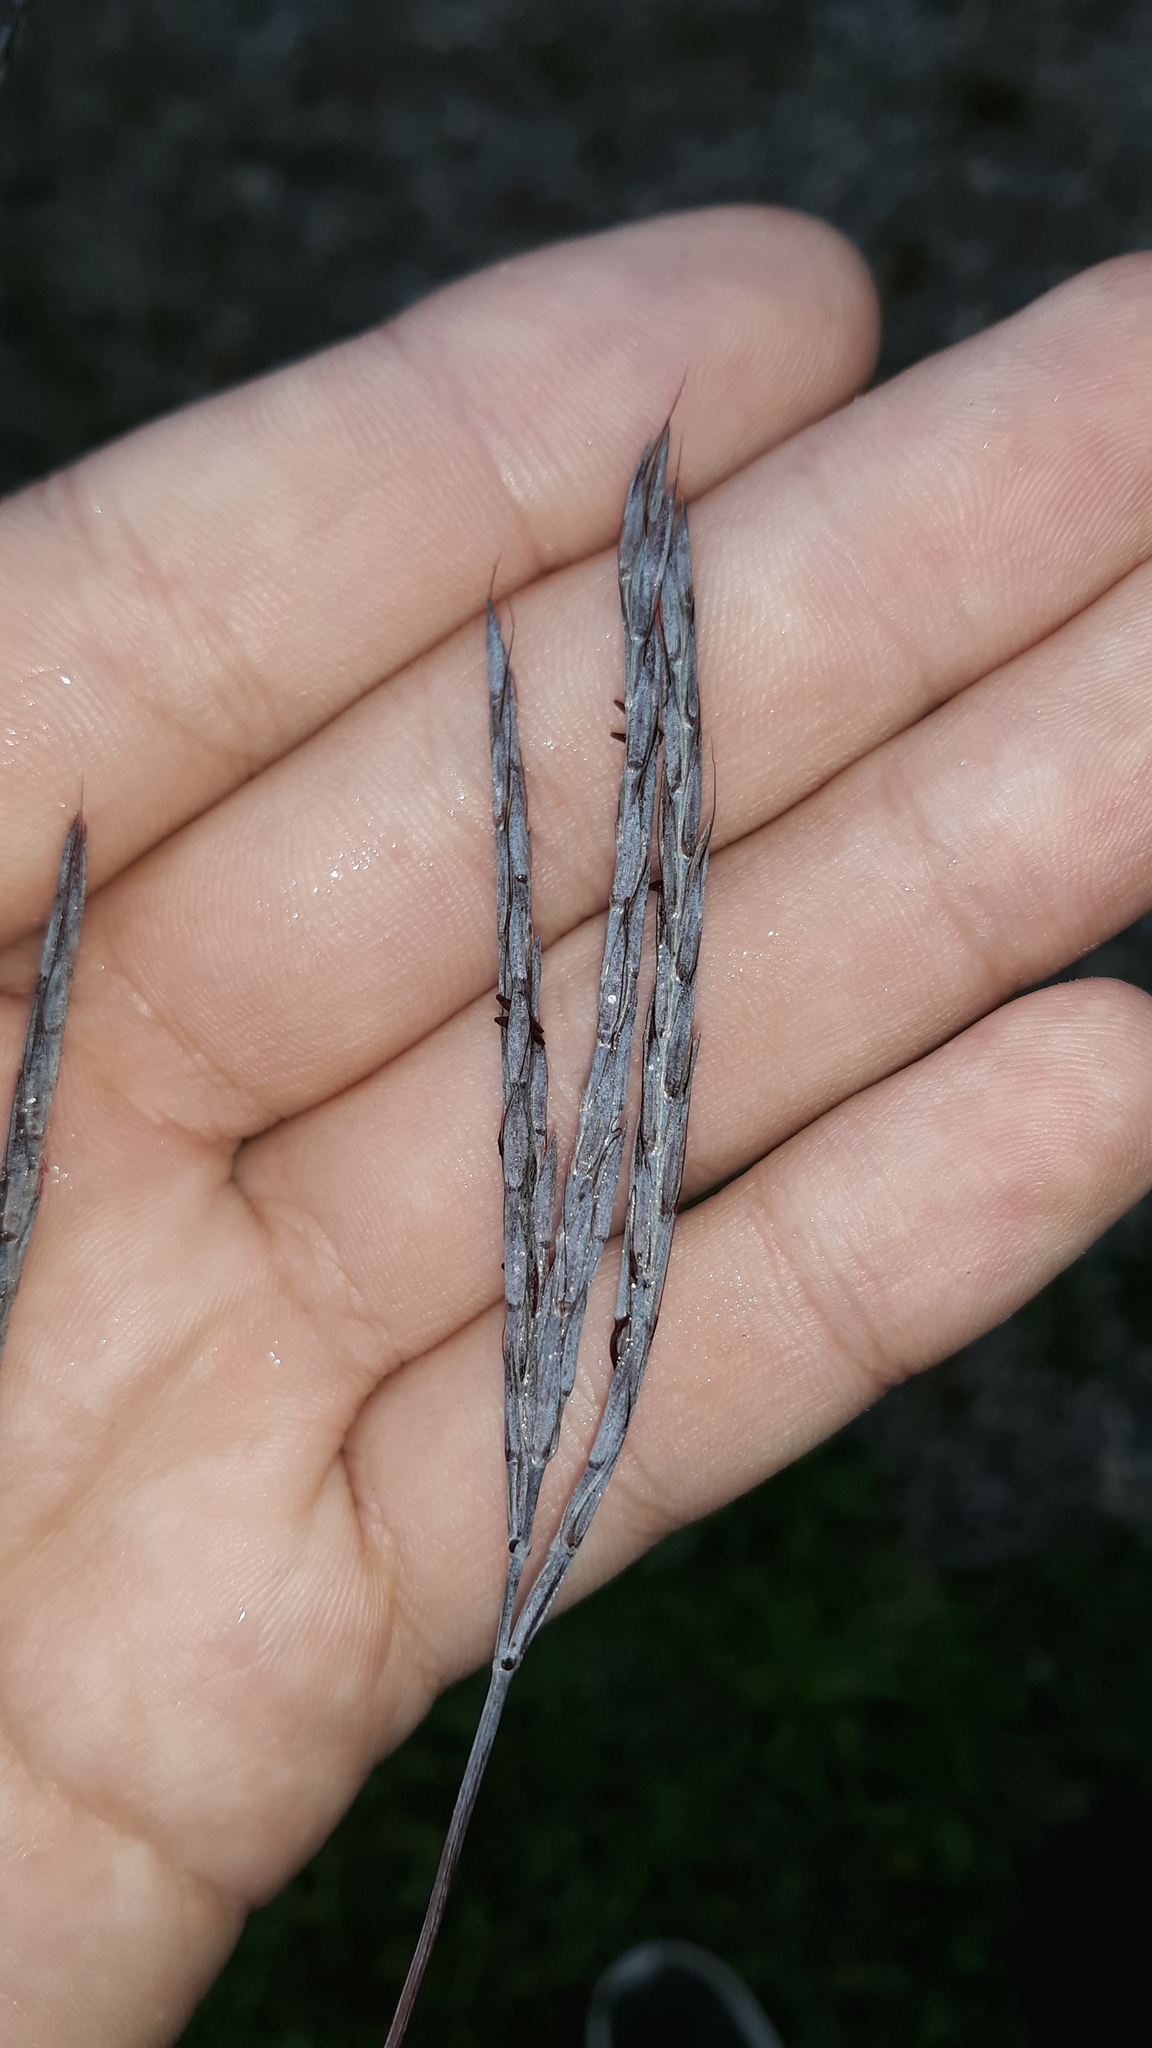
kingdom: Plantae
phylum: Tracheophyta
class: Liliopsida
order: Poales
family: Poaceae
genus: Andropogon
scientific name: Andropogon gerardi
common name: Big bluestem
